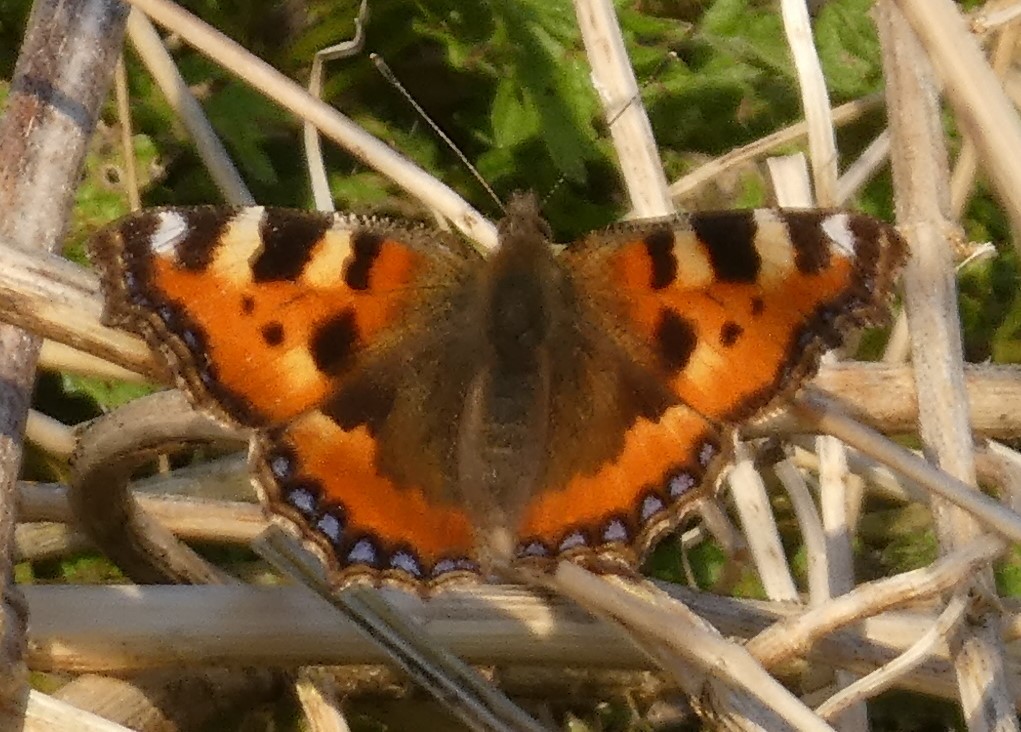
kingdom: Animalia
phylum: Arthropoda
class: Insecta
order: Lepidoptera
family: Nymphalidae
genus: Aglais
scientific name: Aglais urticae
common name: Small tortoiseshell
